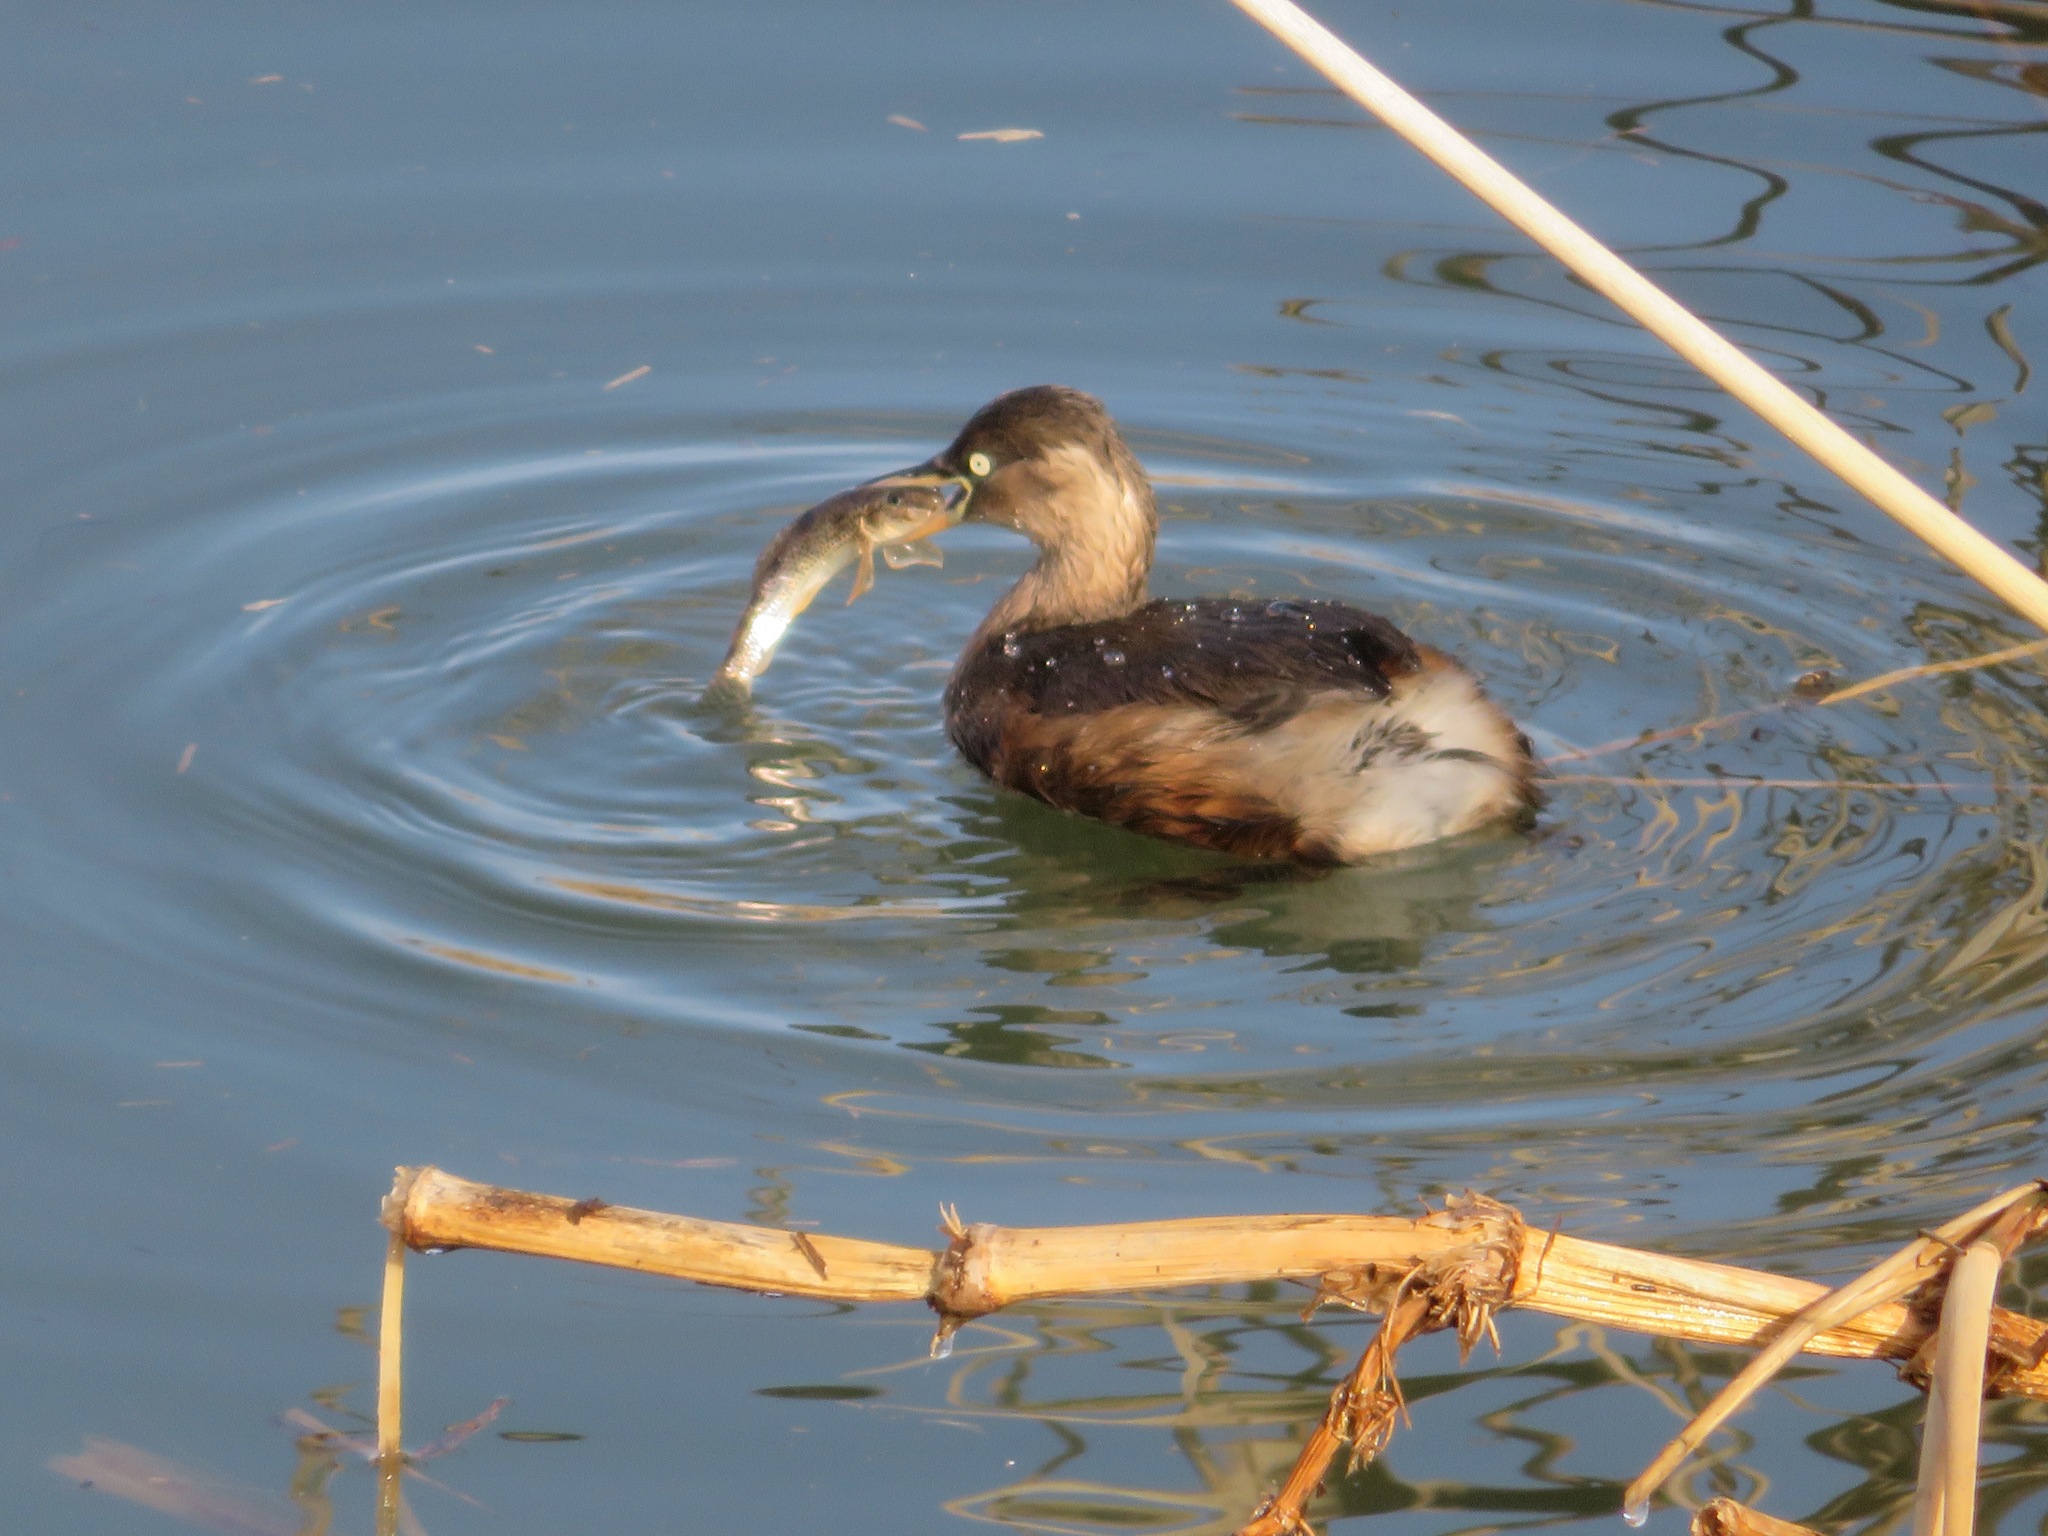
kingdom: Animalia
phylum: Chordata
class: Aves
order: Podicipediformes
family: Podicipedidae
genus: Tachybaptus
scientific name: Tachybaptus ruficollis
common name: Little grebe
